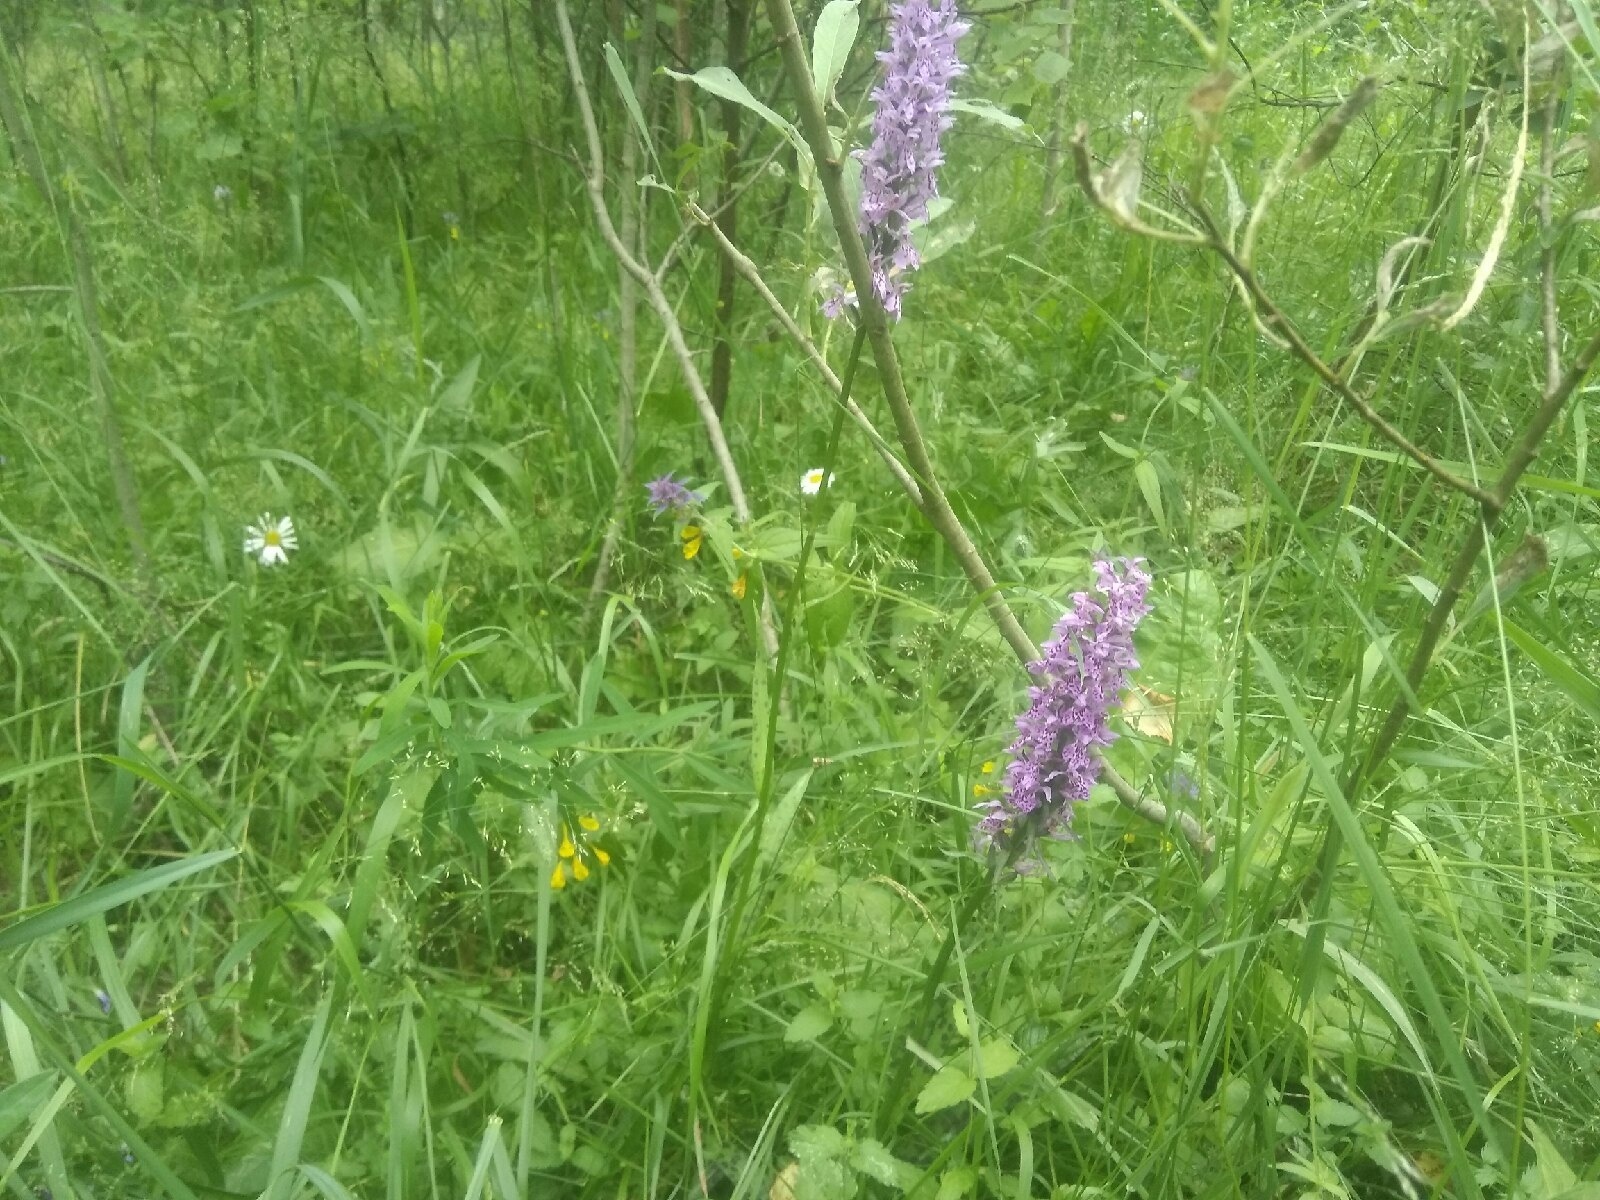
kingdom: Plantae
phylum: Tracheophyta
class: Liliopsida
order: Asparagales
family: Orchidaceae
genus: Dactylorhiza
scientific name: Dactylorhiza maculata
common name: Heath spotted-orchid
